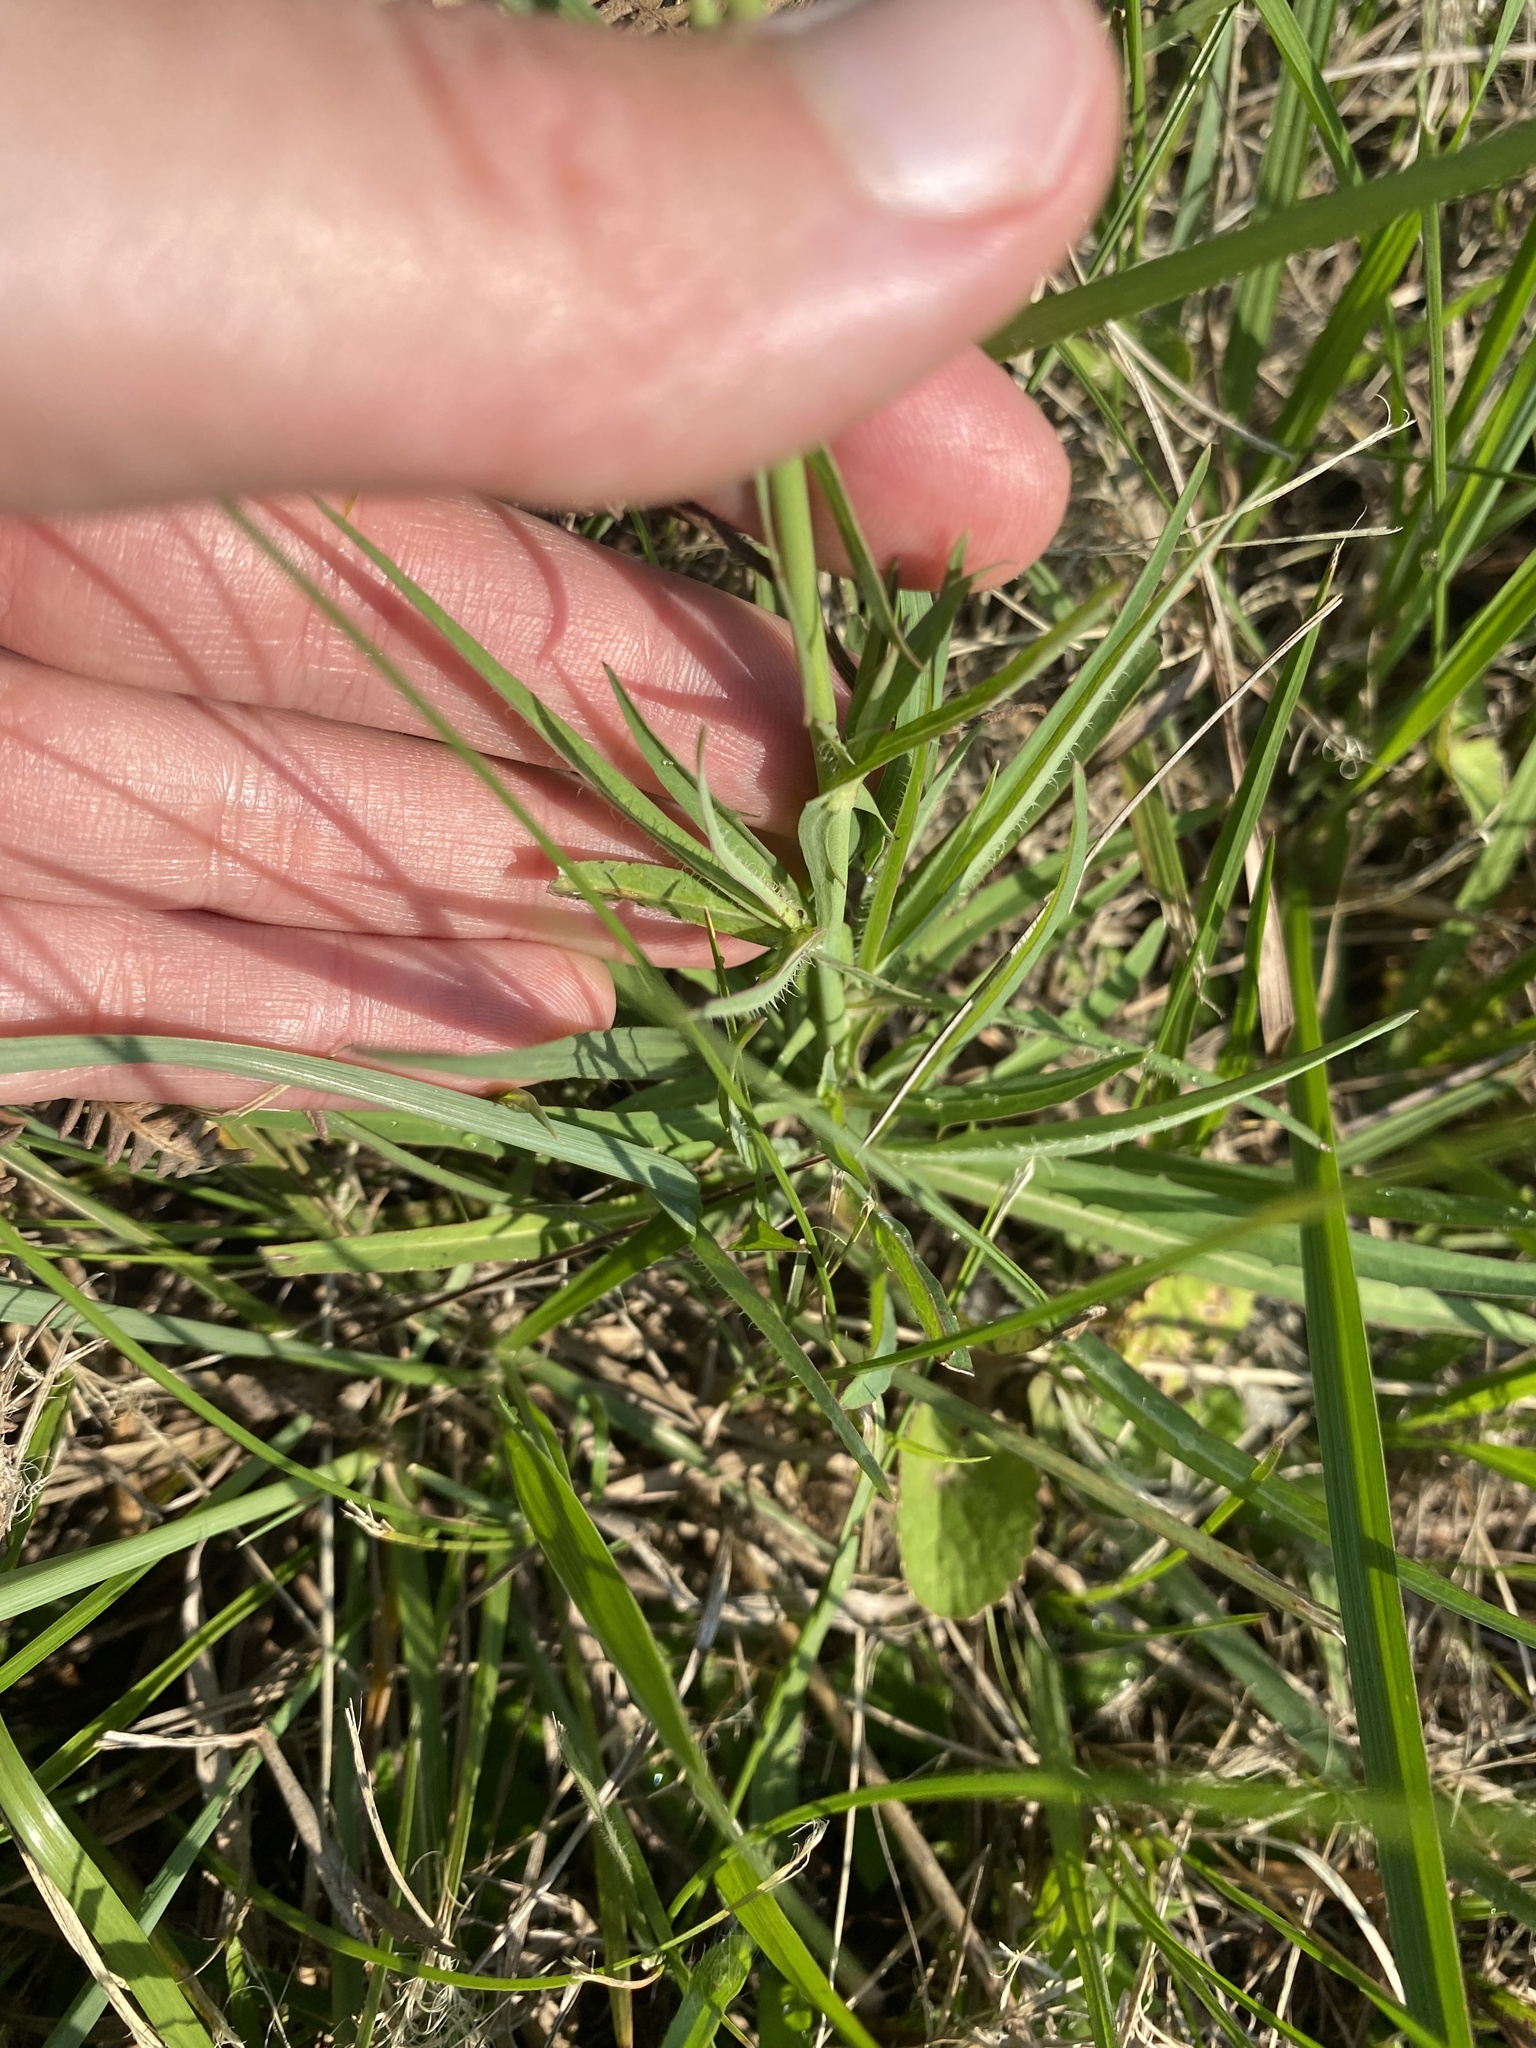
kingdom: Plantae
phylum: Tracheophyta
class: Magnoliopsida
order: Asterales
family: Asteraceae
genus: Lactuca
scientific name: Lactuca inermis
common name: Wild lettuce
